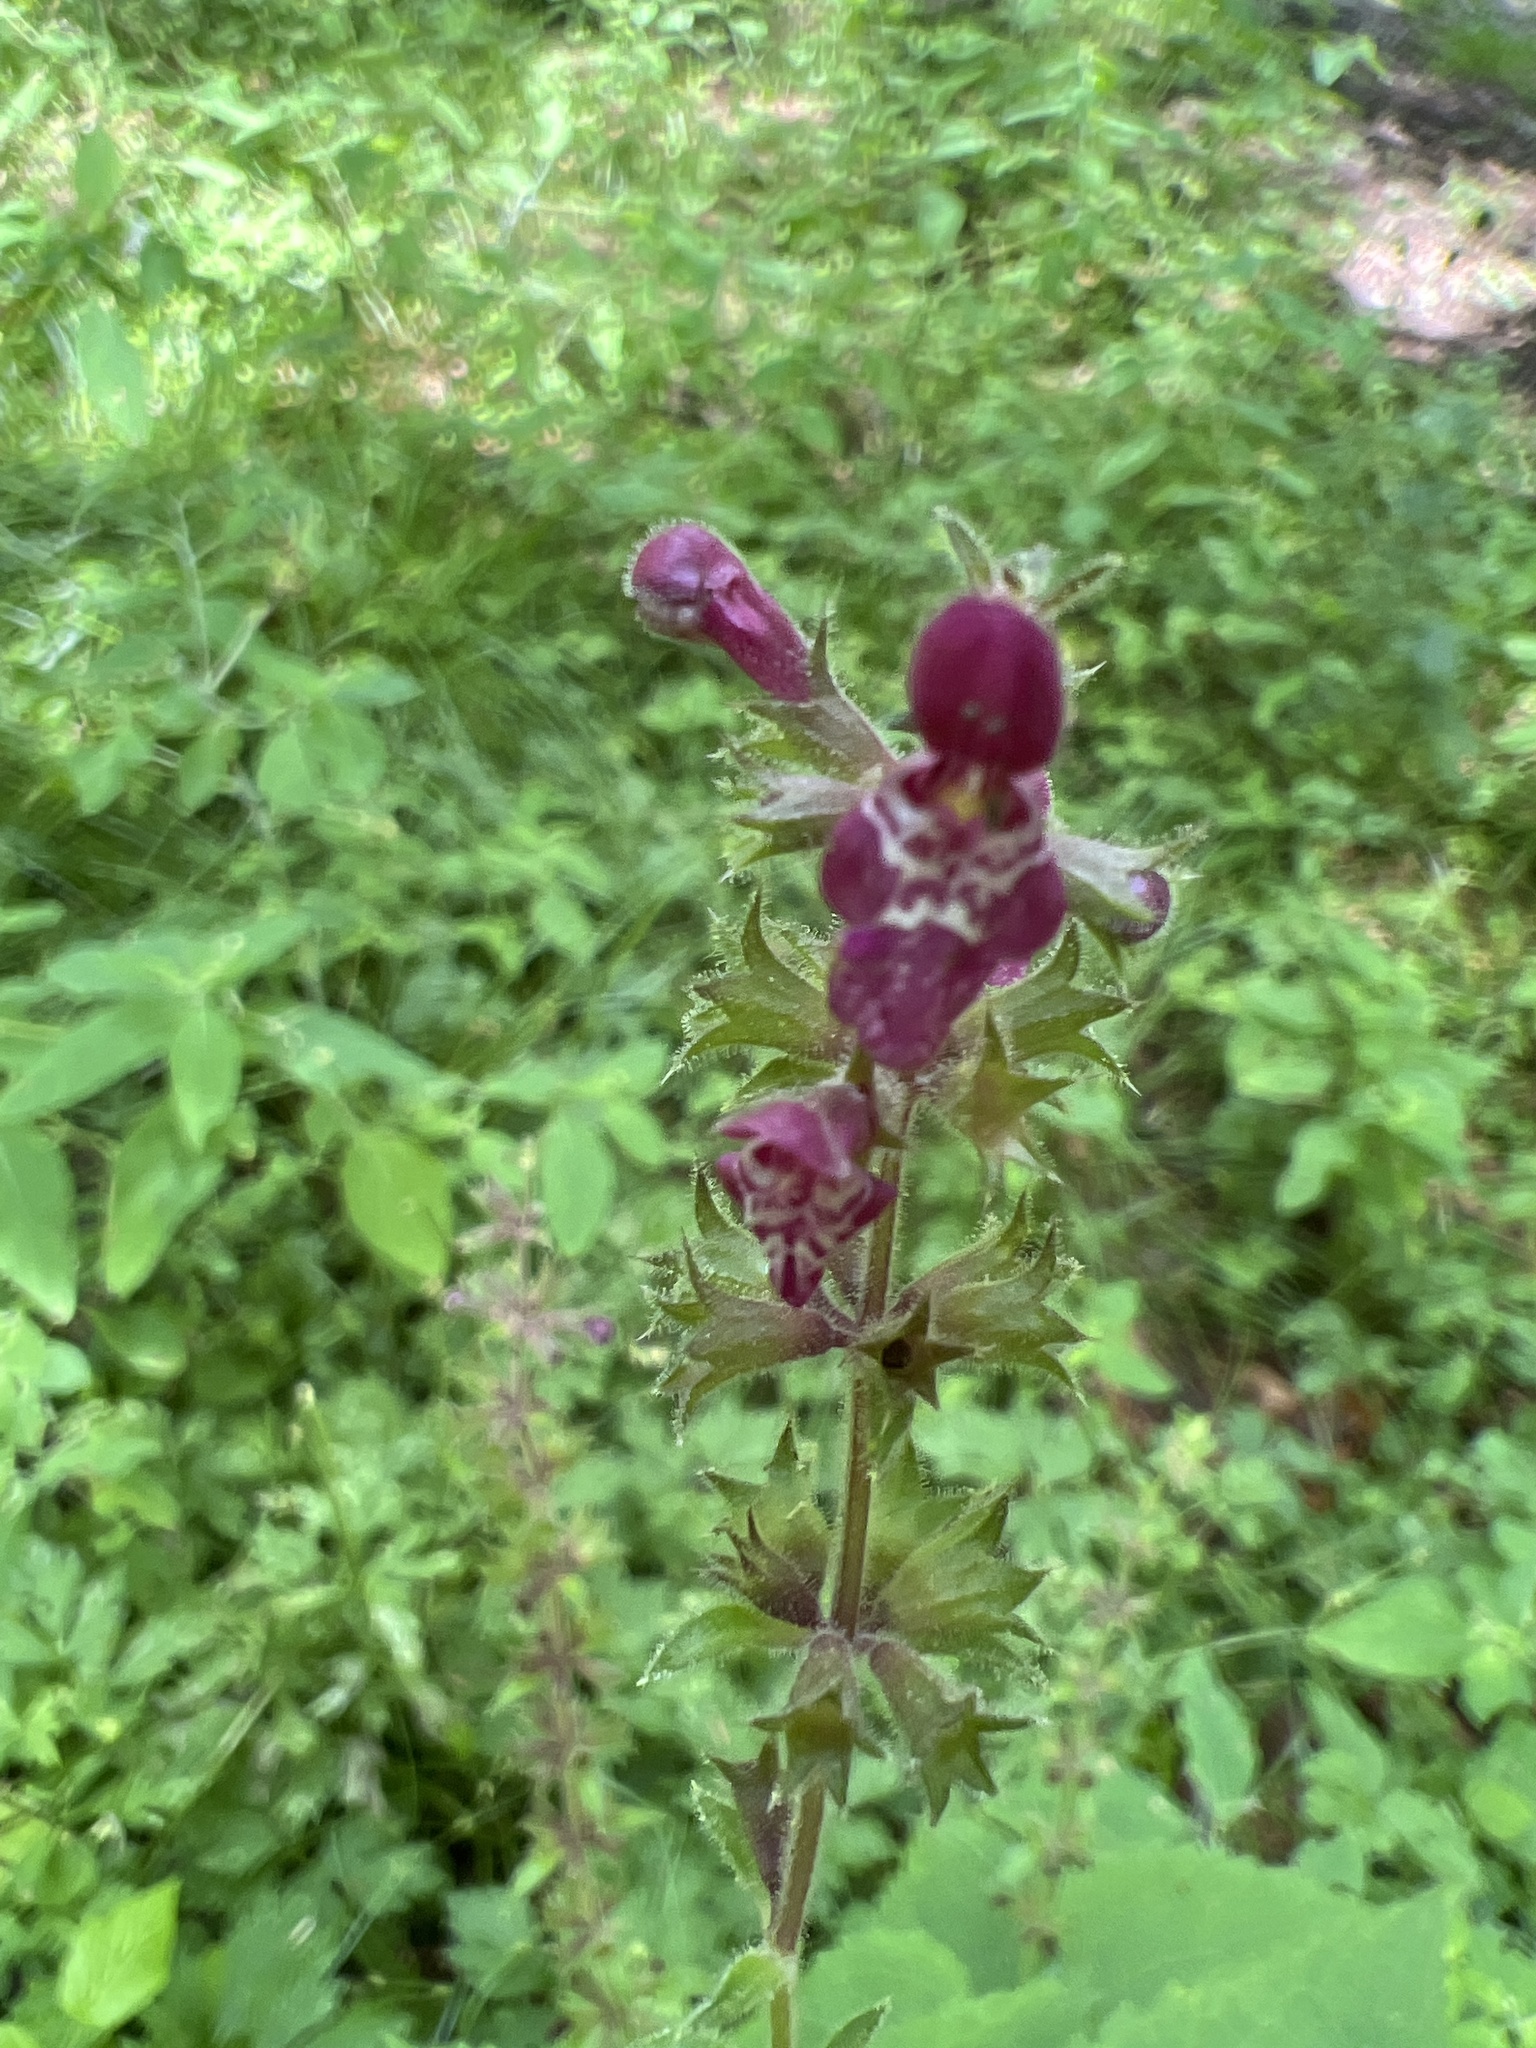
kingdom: Plantae
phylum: Tracheophyta
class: Magnoliopsida
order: Lamiales
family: Lamiaceae
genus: Stachys
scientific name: Stachys sylvatica
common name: Hedge woundwort
